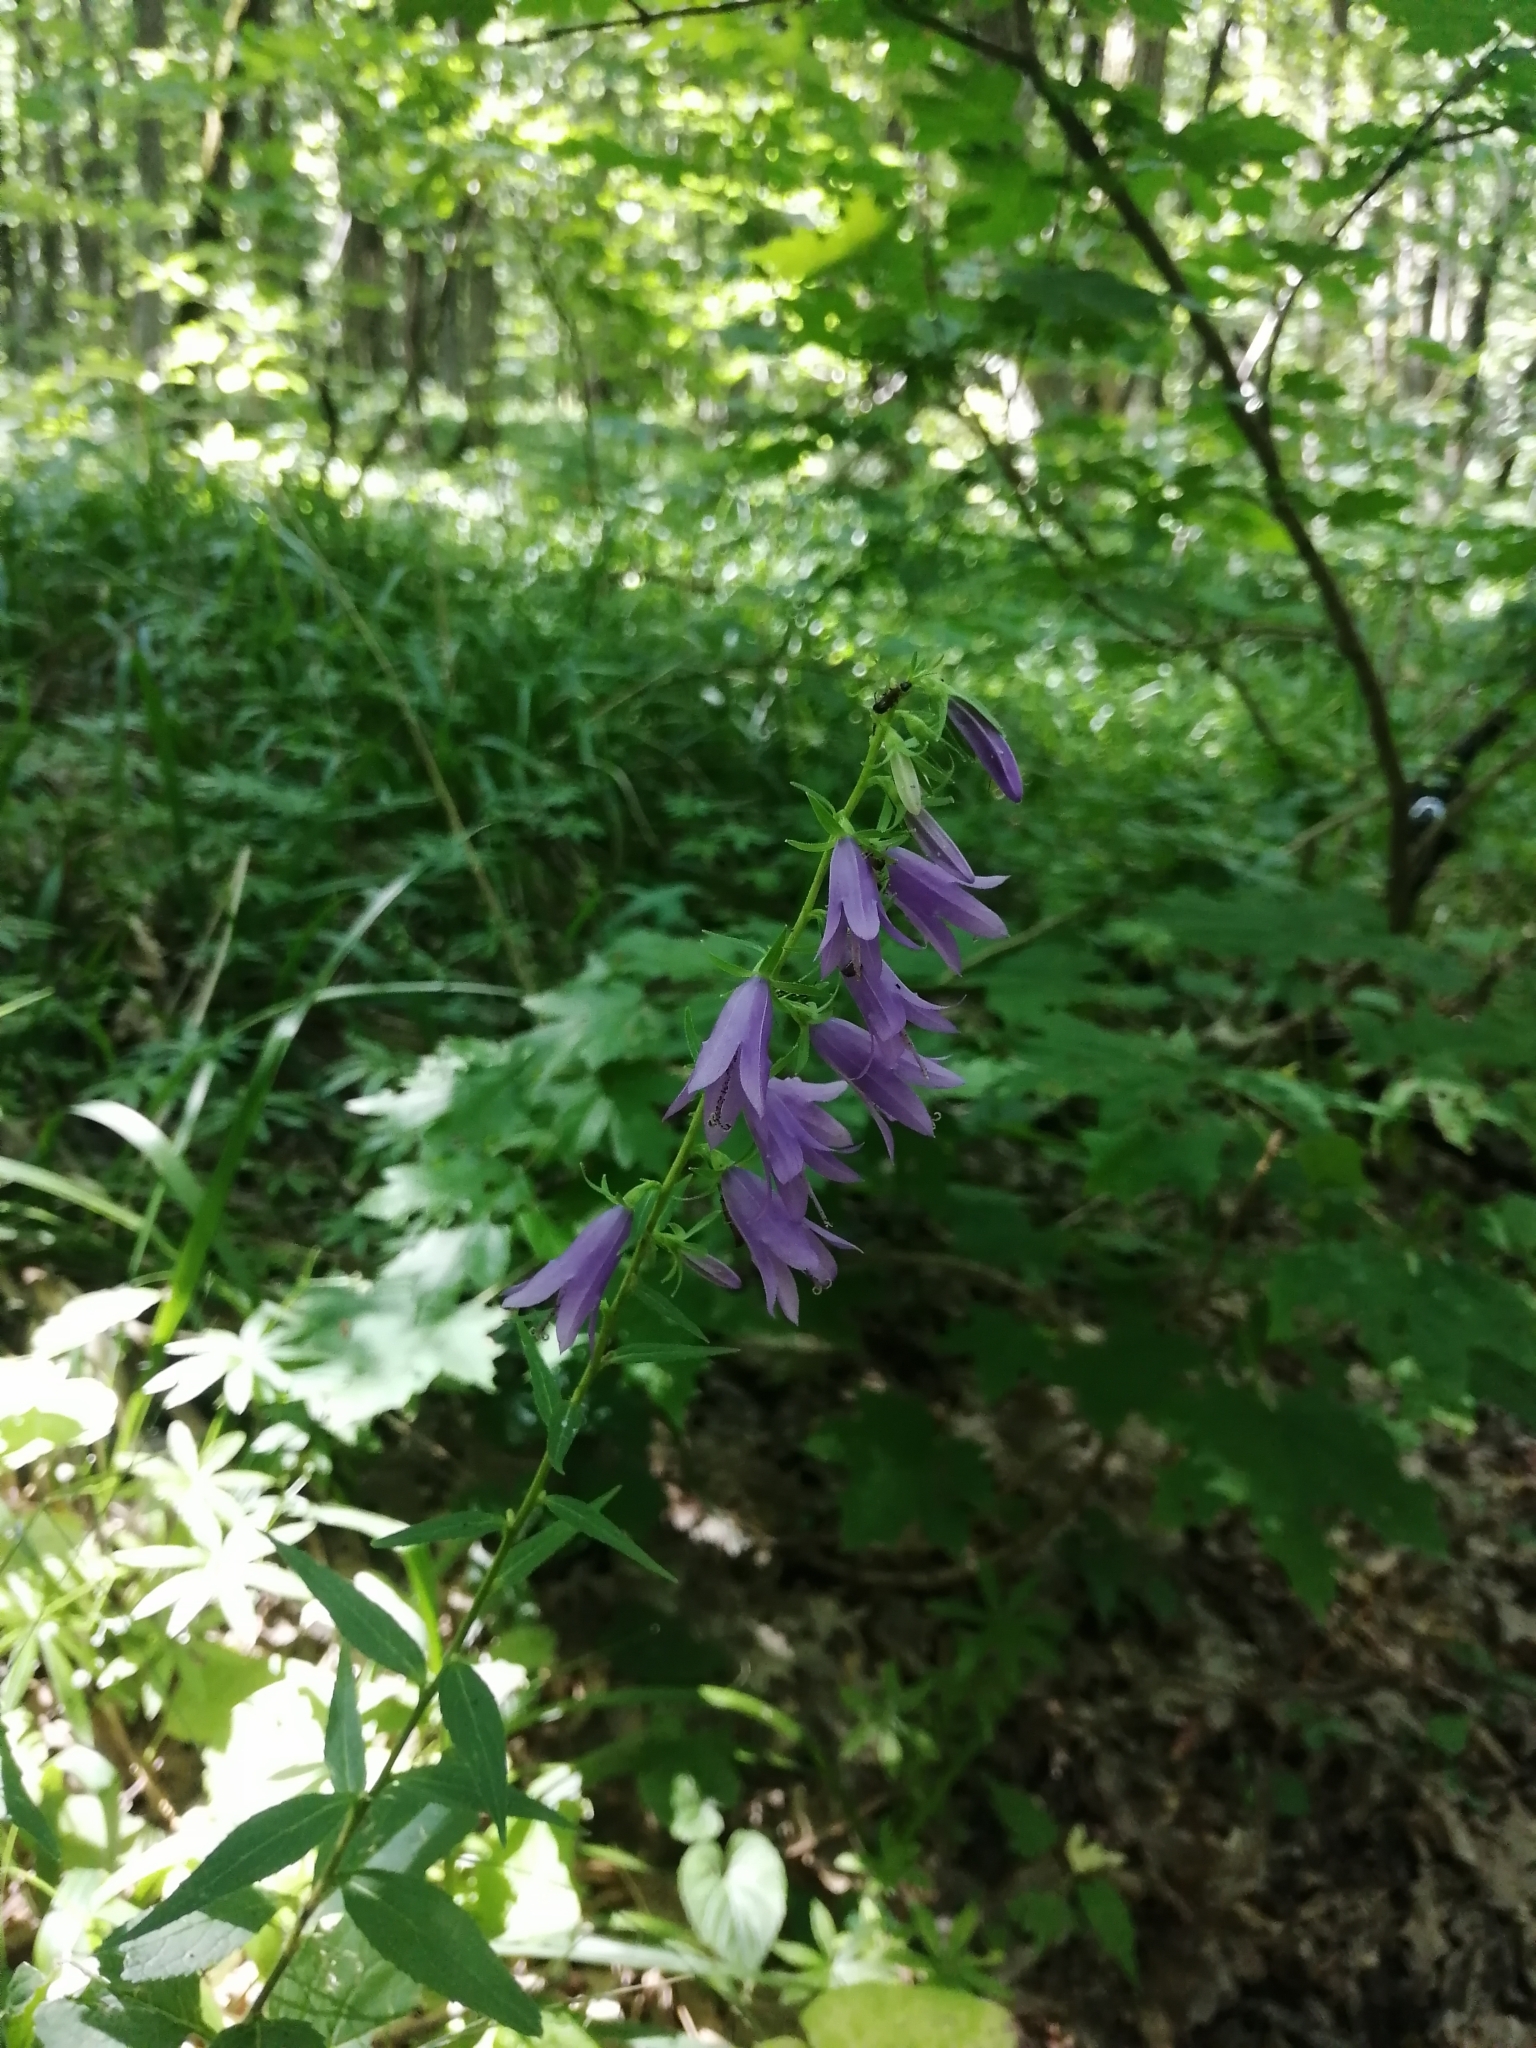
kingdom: Plantae
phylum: Tracheophyta
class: Magnoliopsida
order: Asterales
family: Campanulaceae
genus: Campanula
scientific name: Campanula rapunculoides
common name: Creeping bellflower
